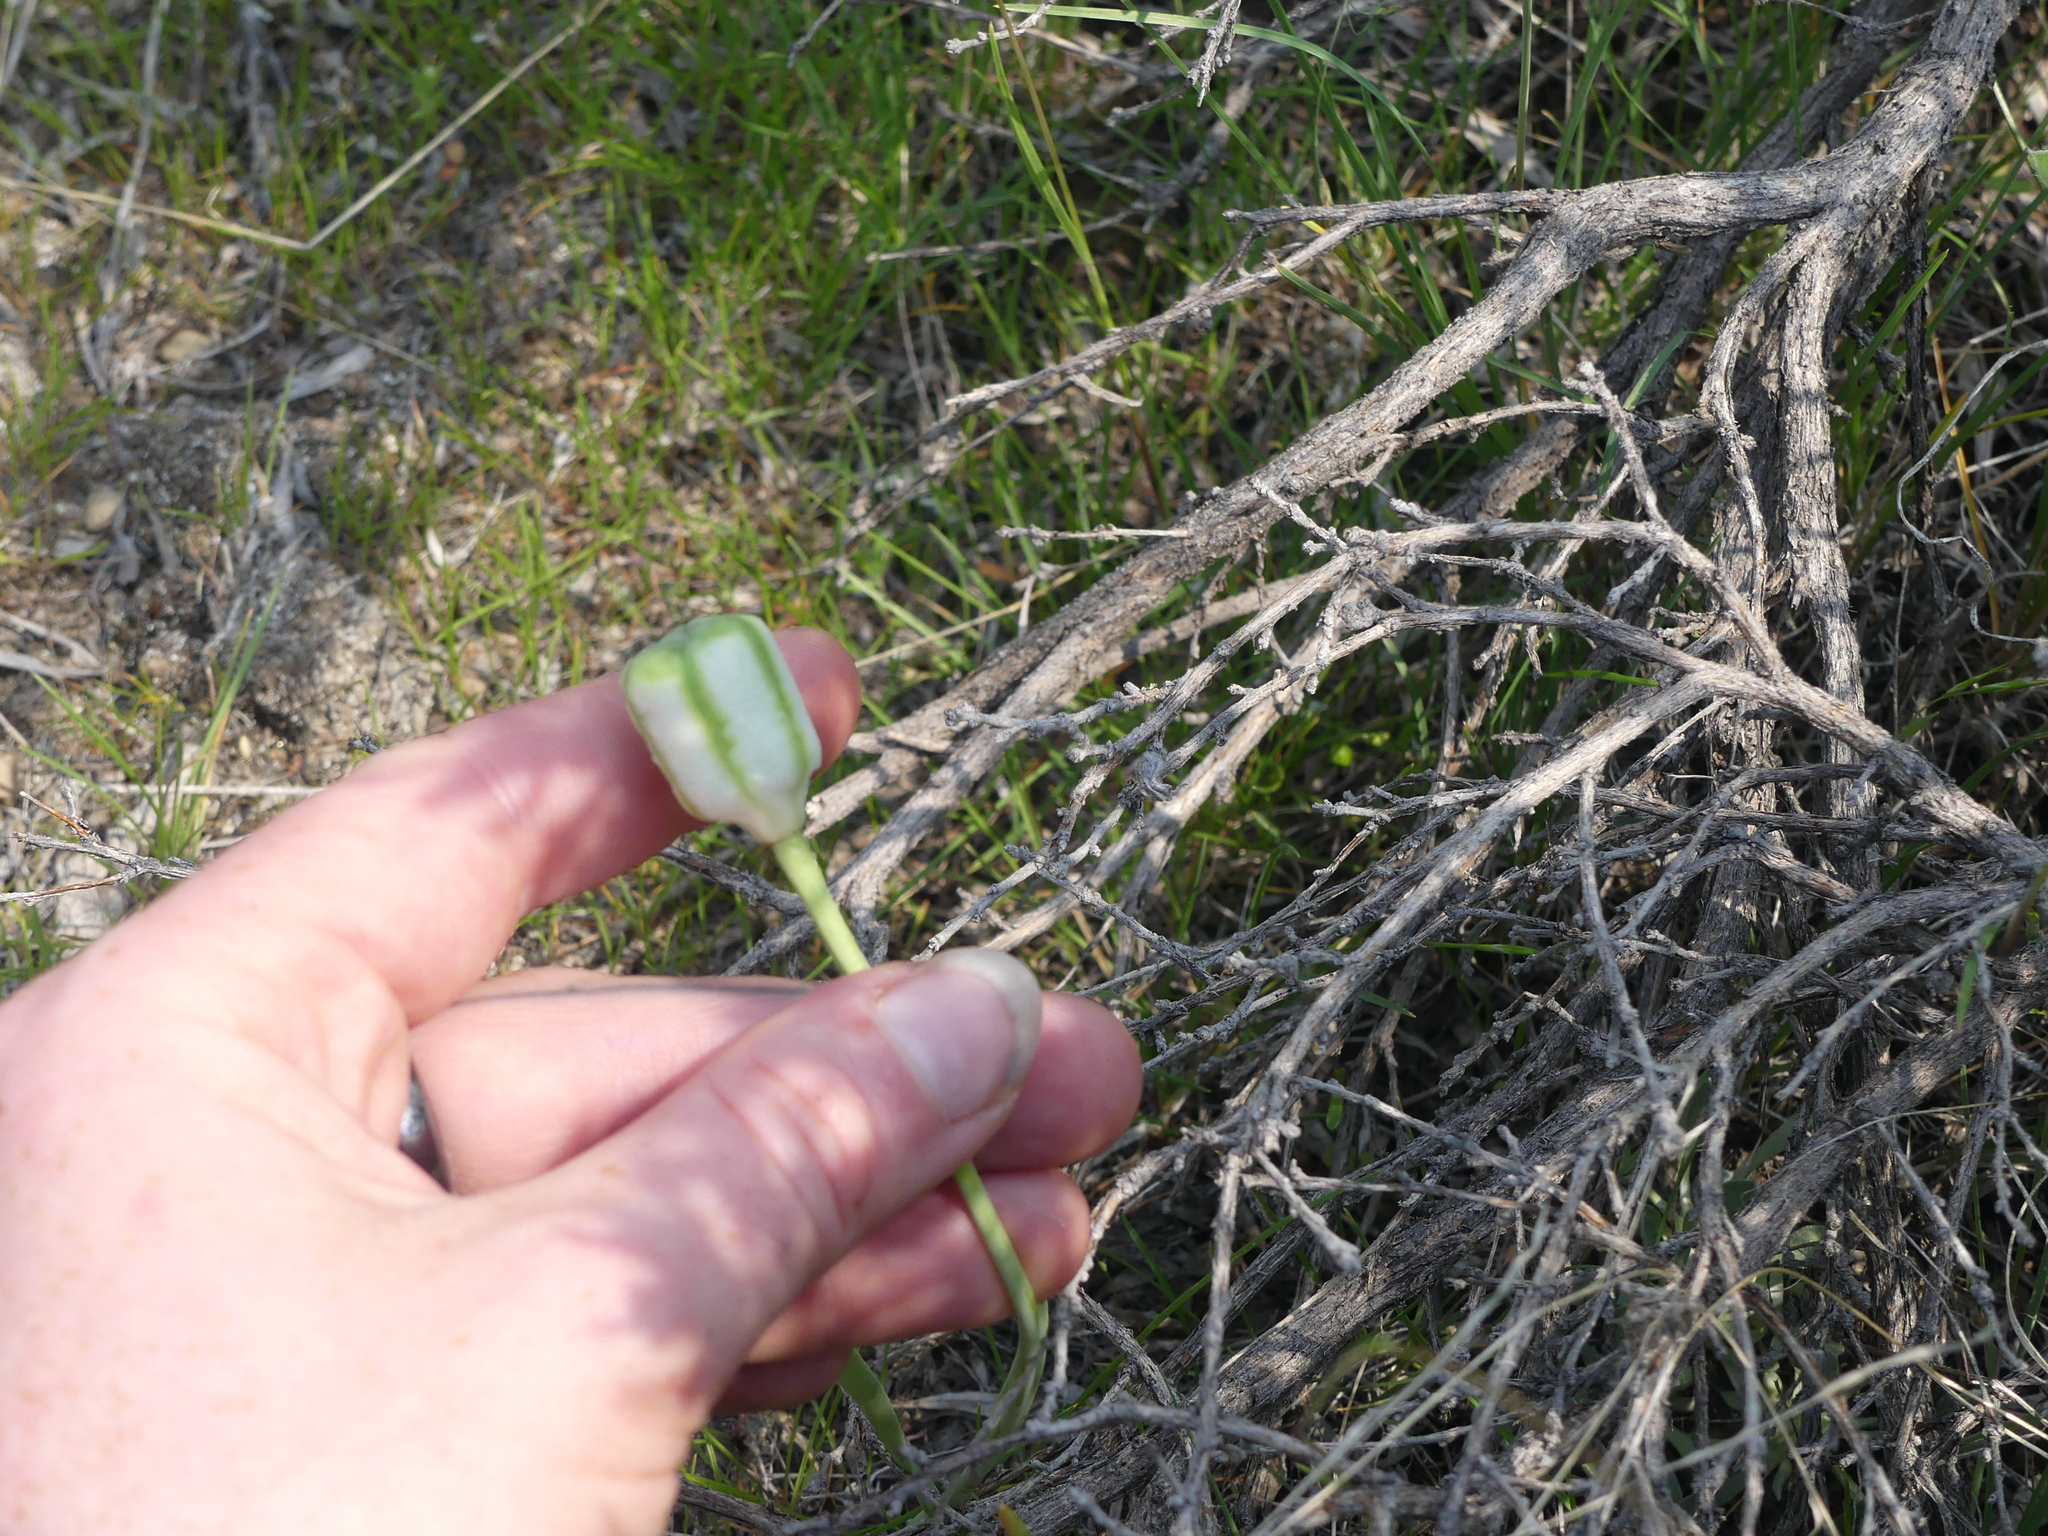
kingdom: Plantae
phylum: Tracheophyta
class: Liliopsida
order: Liliales
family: Liliaceae
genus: Fritillaria
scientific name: Fritillaria pudica
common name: Yellow fritillary
